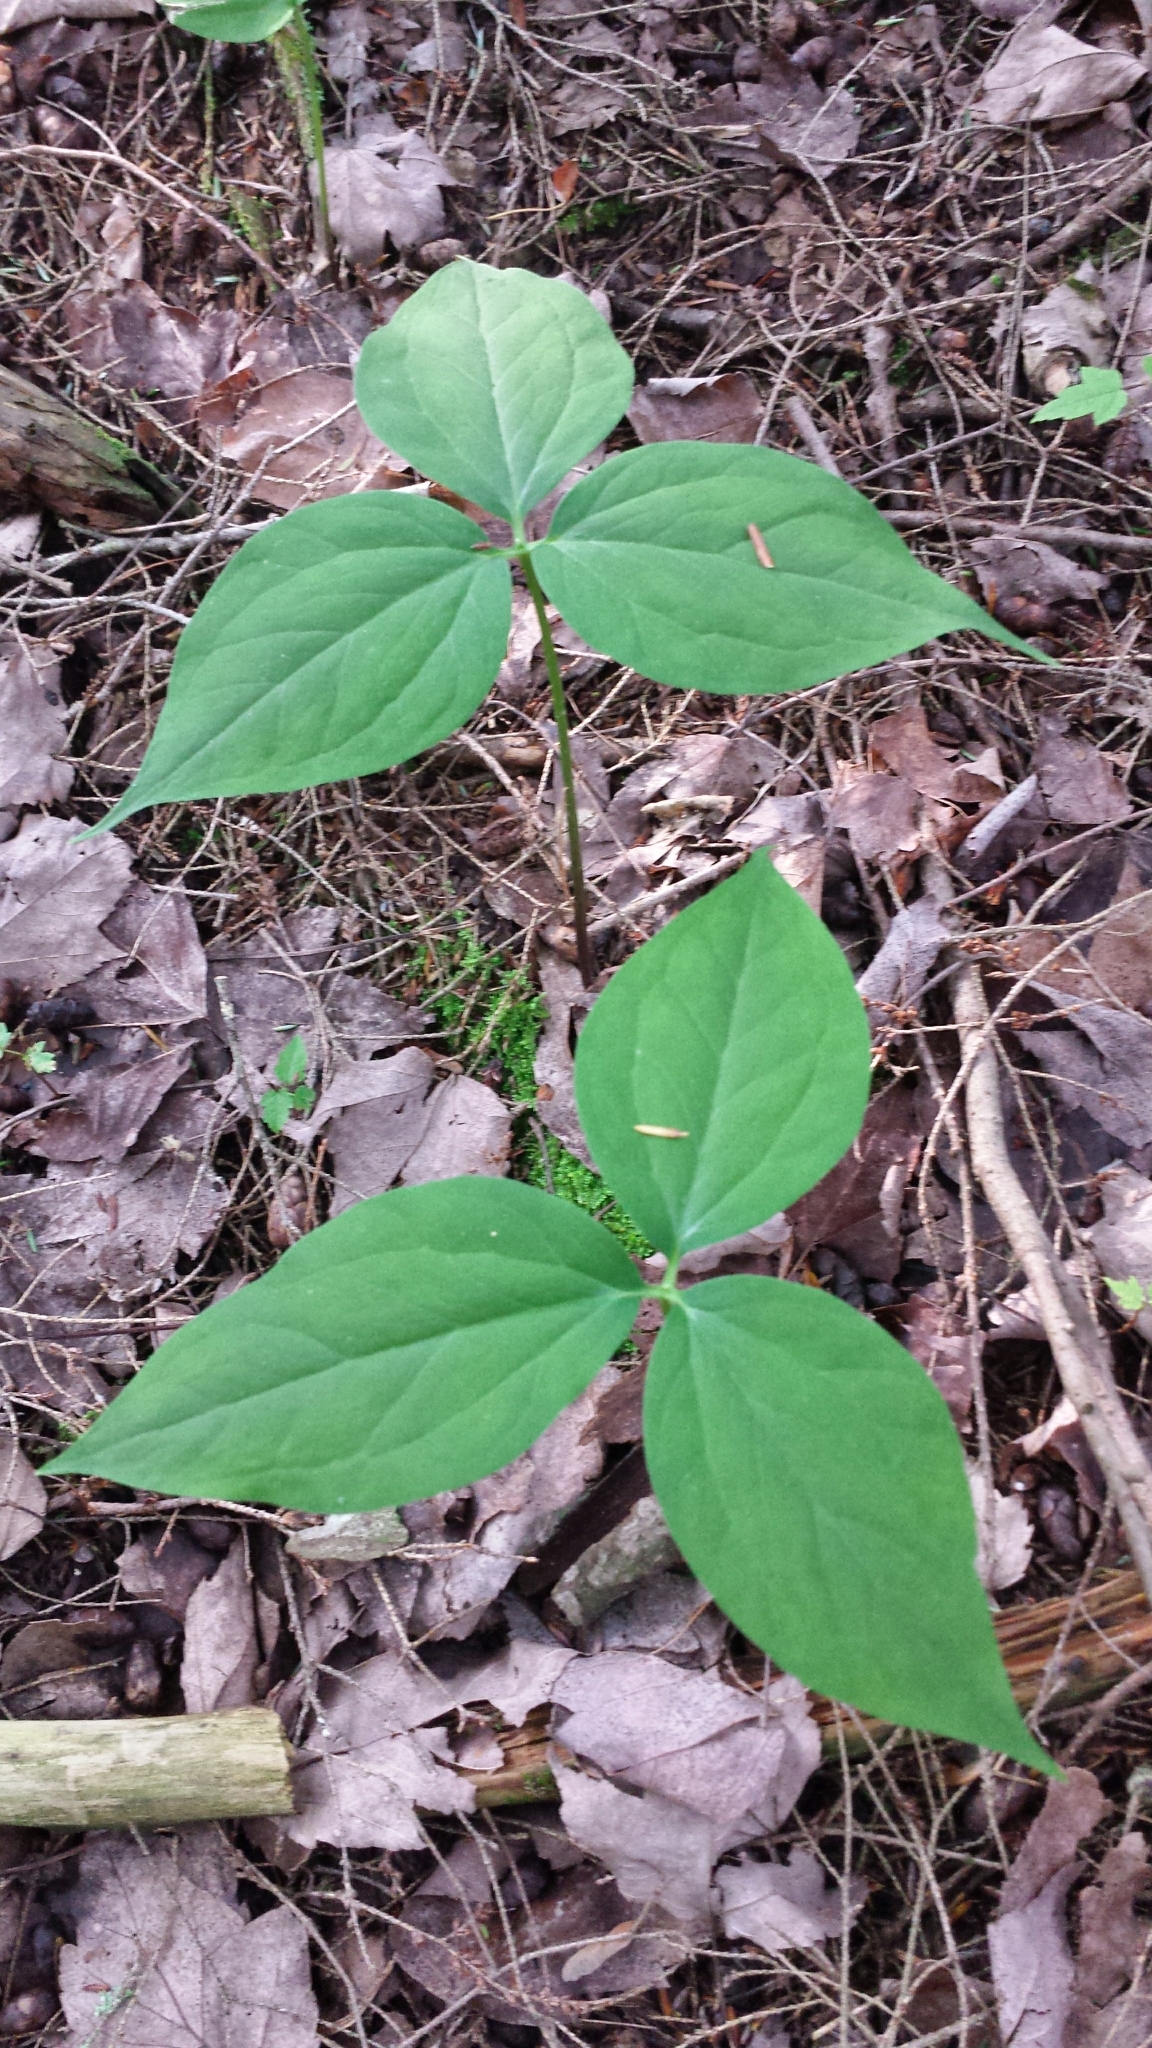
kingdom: Plantae
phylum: Tracheophyta
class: Liliopsida
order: Liliales
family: Melanthiaceae
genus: Trillium
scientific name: Trillium undulatum
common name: Paint trillium
